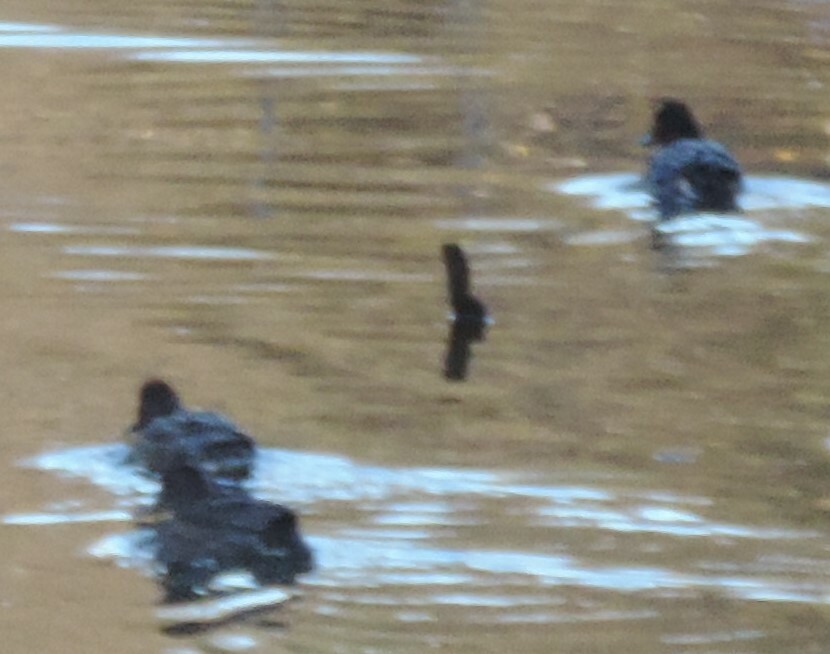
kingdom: Animalia
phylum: Chordata
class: Aves
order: Anseriformes
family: Anatidae
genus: Anas
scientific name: Anas crecca
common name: Eurasian teal
